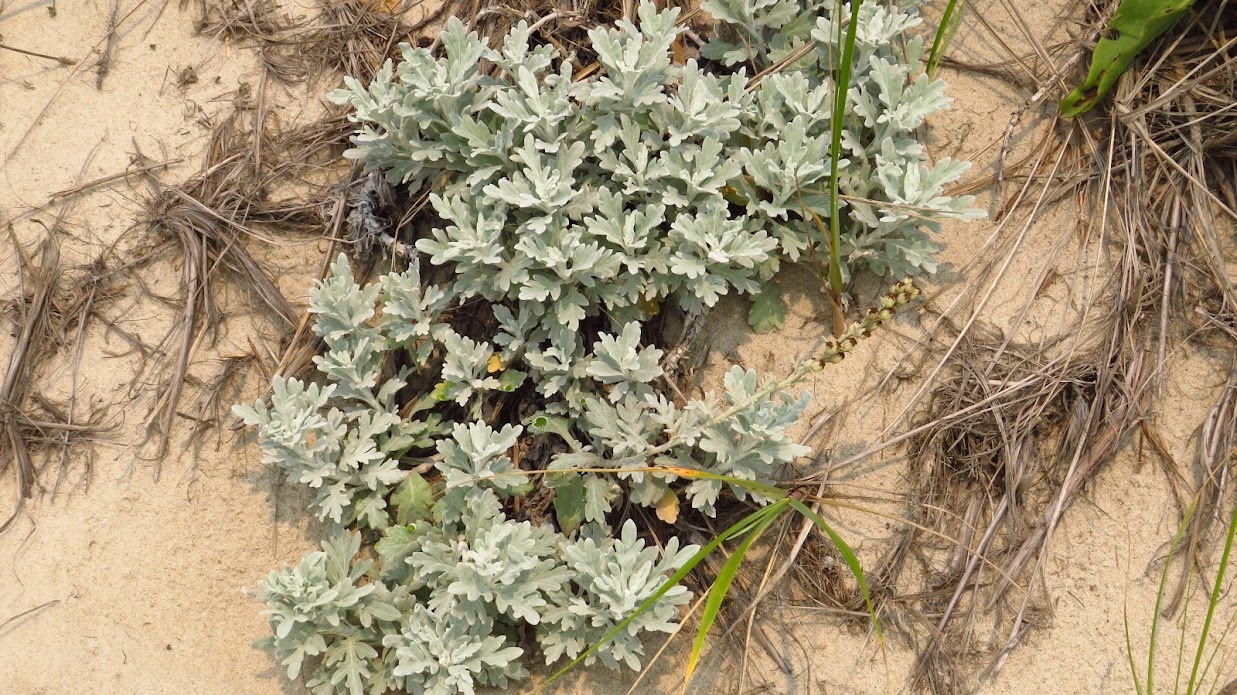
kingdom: Plantae
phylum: Tracheophyta
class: Magnoliopsida
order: Asterales
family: Asteraceae
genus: Artemisia
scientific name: Artemisia stelleriana
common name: Beach wormwood
